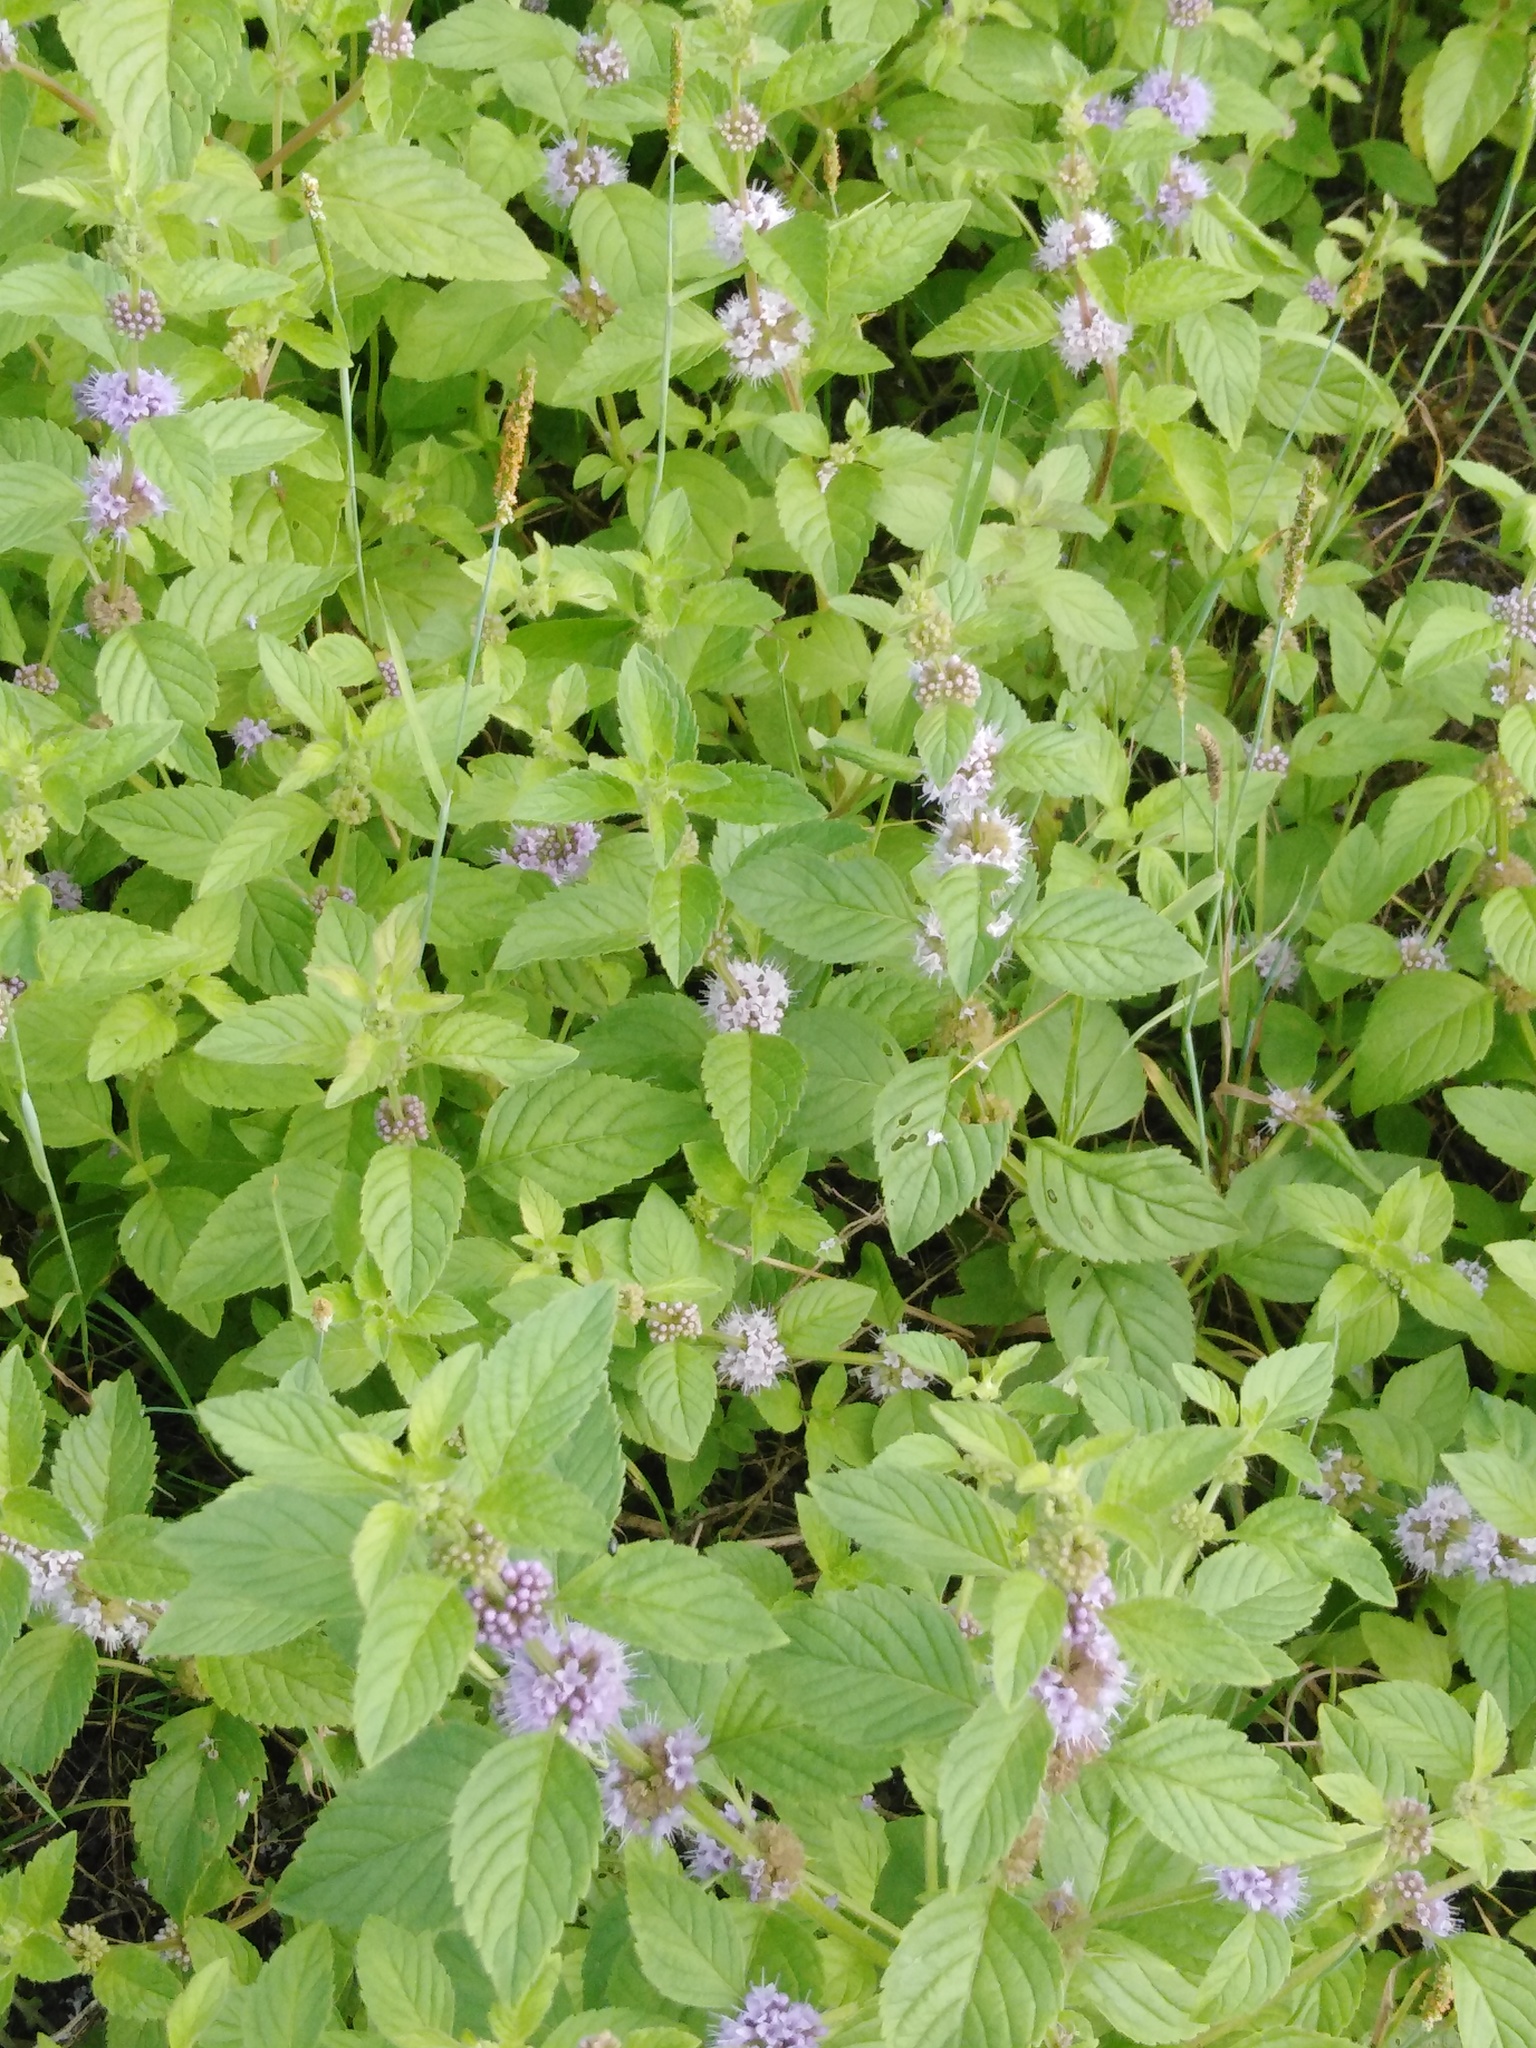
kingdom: Plantae
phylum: Tracheophyta
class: Magnoliopsida
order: Lamiales
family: Lamiaceae
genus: Mentha
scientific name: Mentha arvensis
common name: Corn mint
